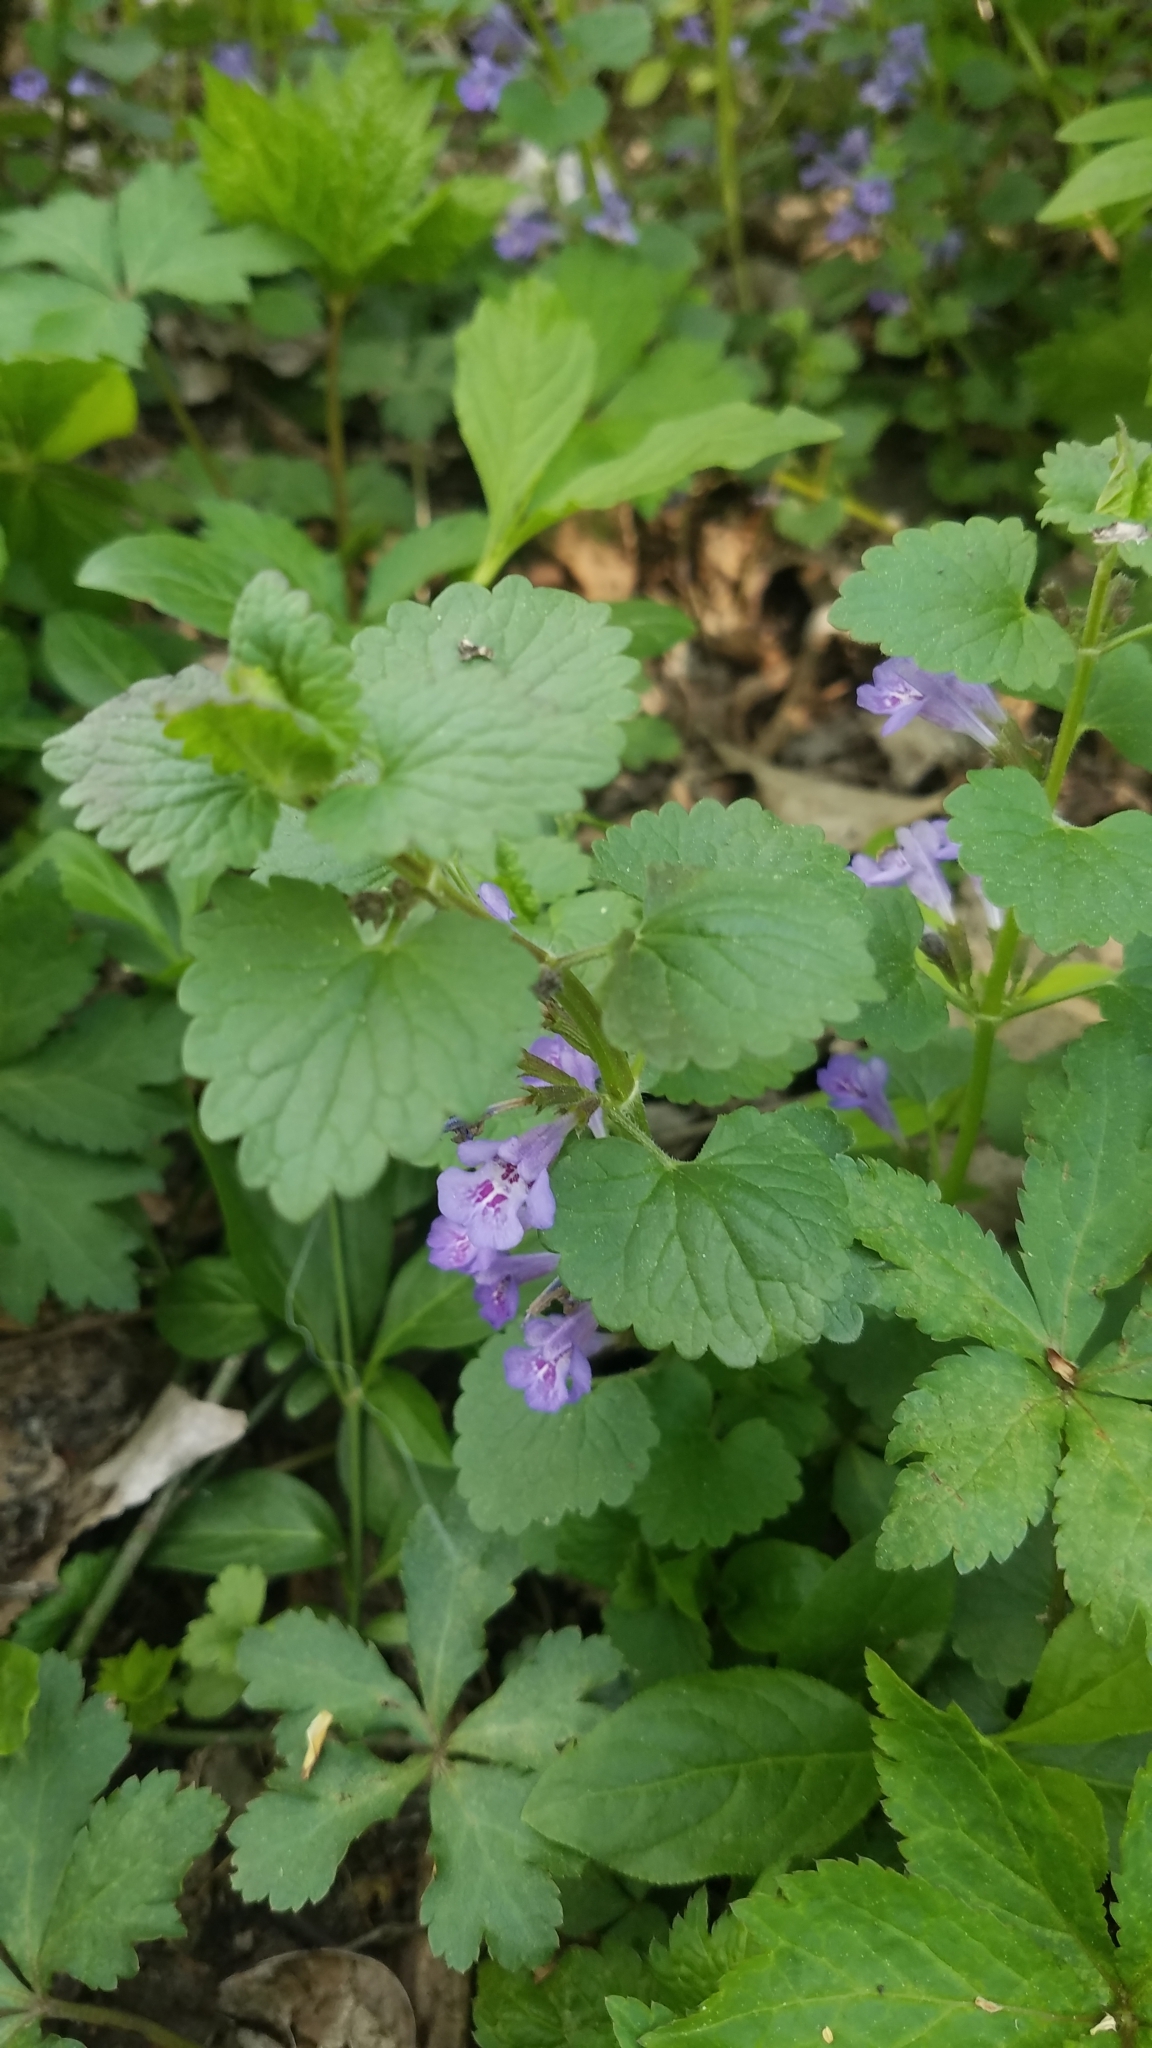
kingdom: Plantae
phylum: Tracheophyta
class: Magnoliopsida
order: Lamiales
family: Lamiaceae
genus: Glechoma
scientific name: Glechoma hederacea
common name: Ground ivy
